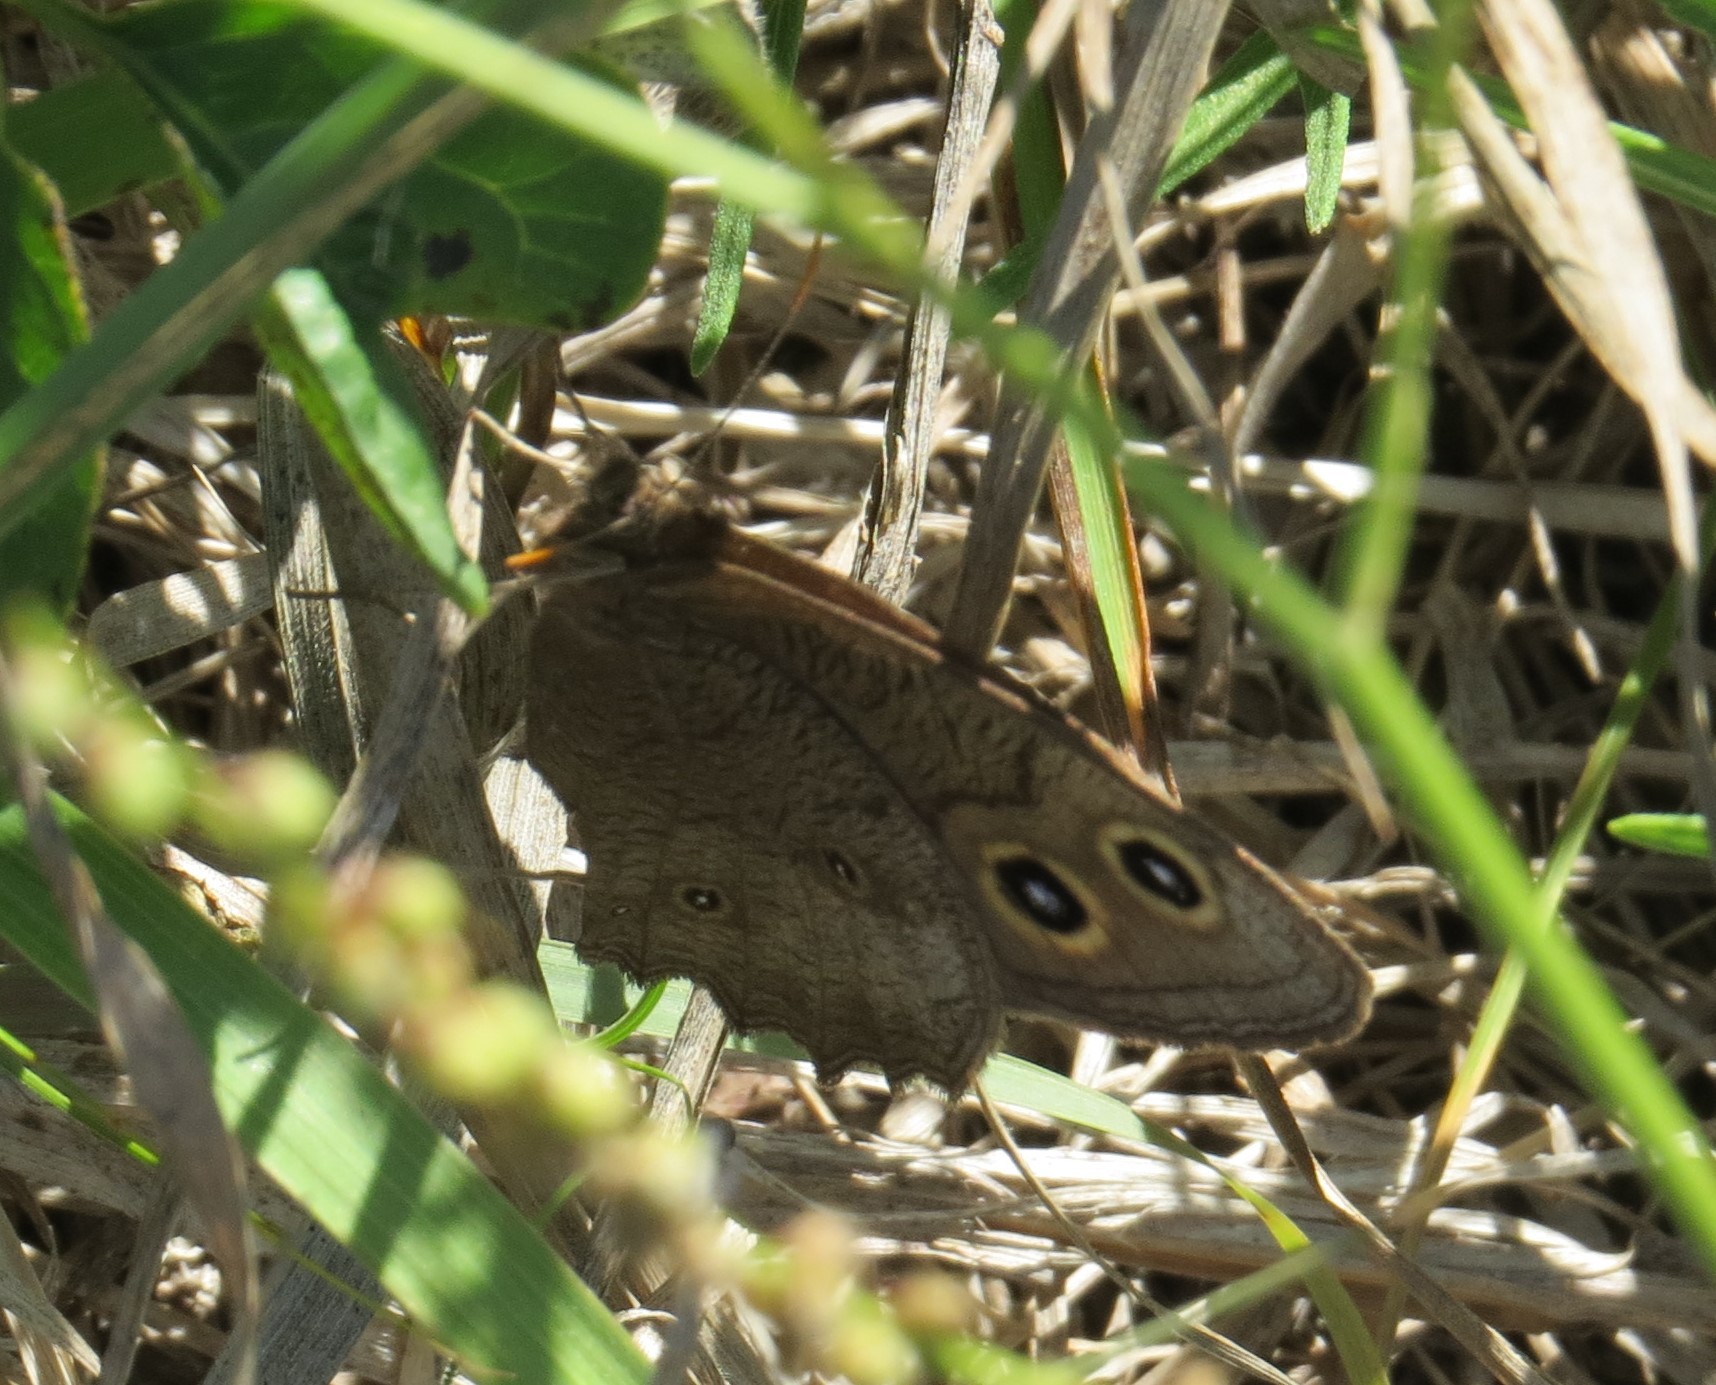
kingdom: Animalia
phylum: Arthropoda
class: Insecta
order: Lepidoptera
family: Nymphalidae
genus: Cercyonis
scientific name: Cercyonis pegala
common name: Common wood-nymph
